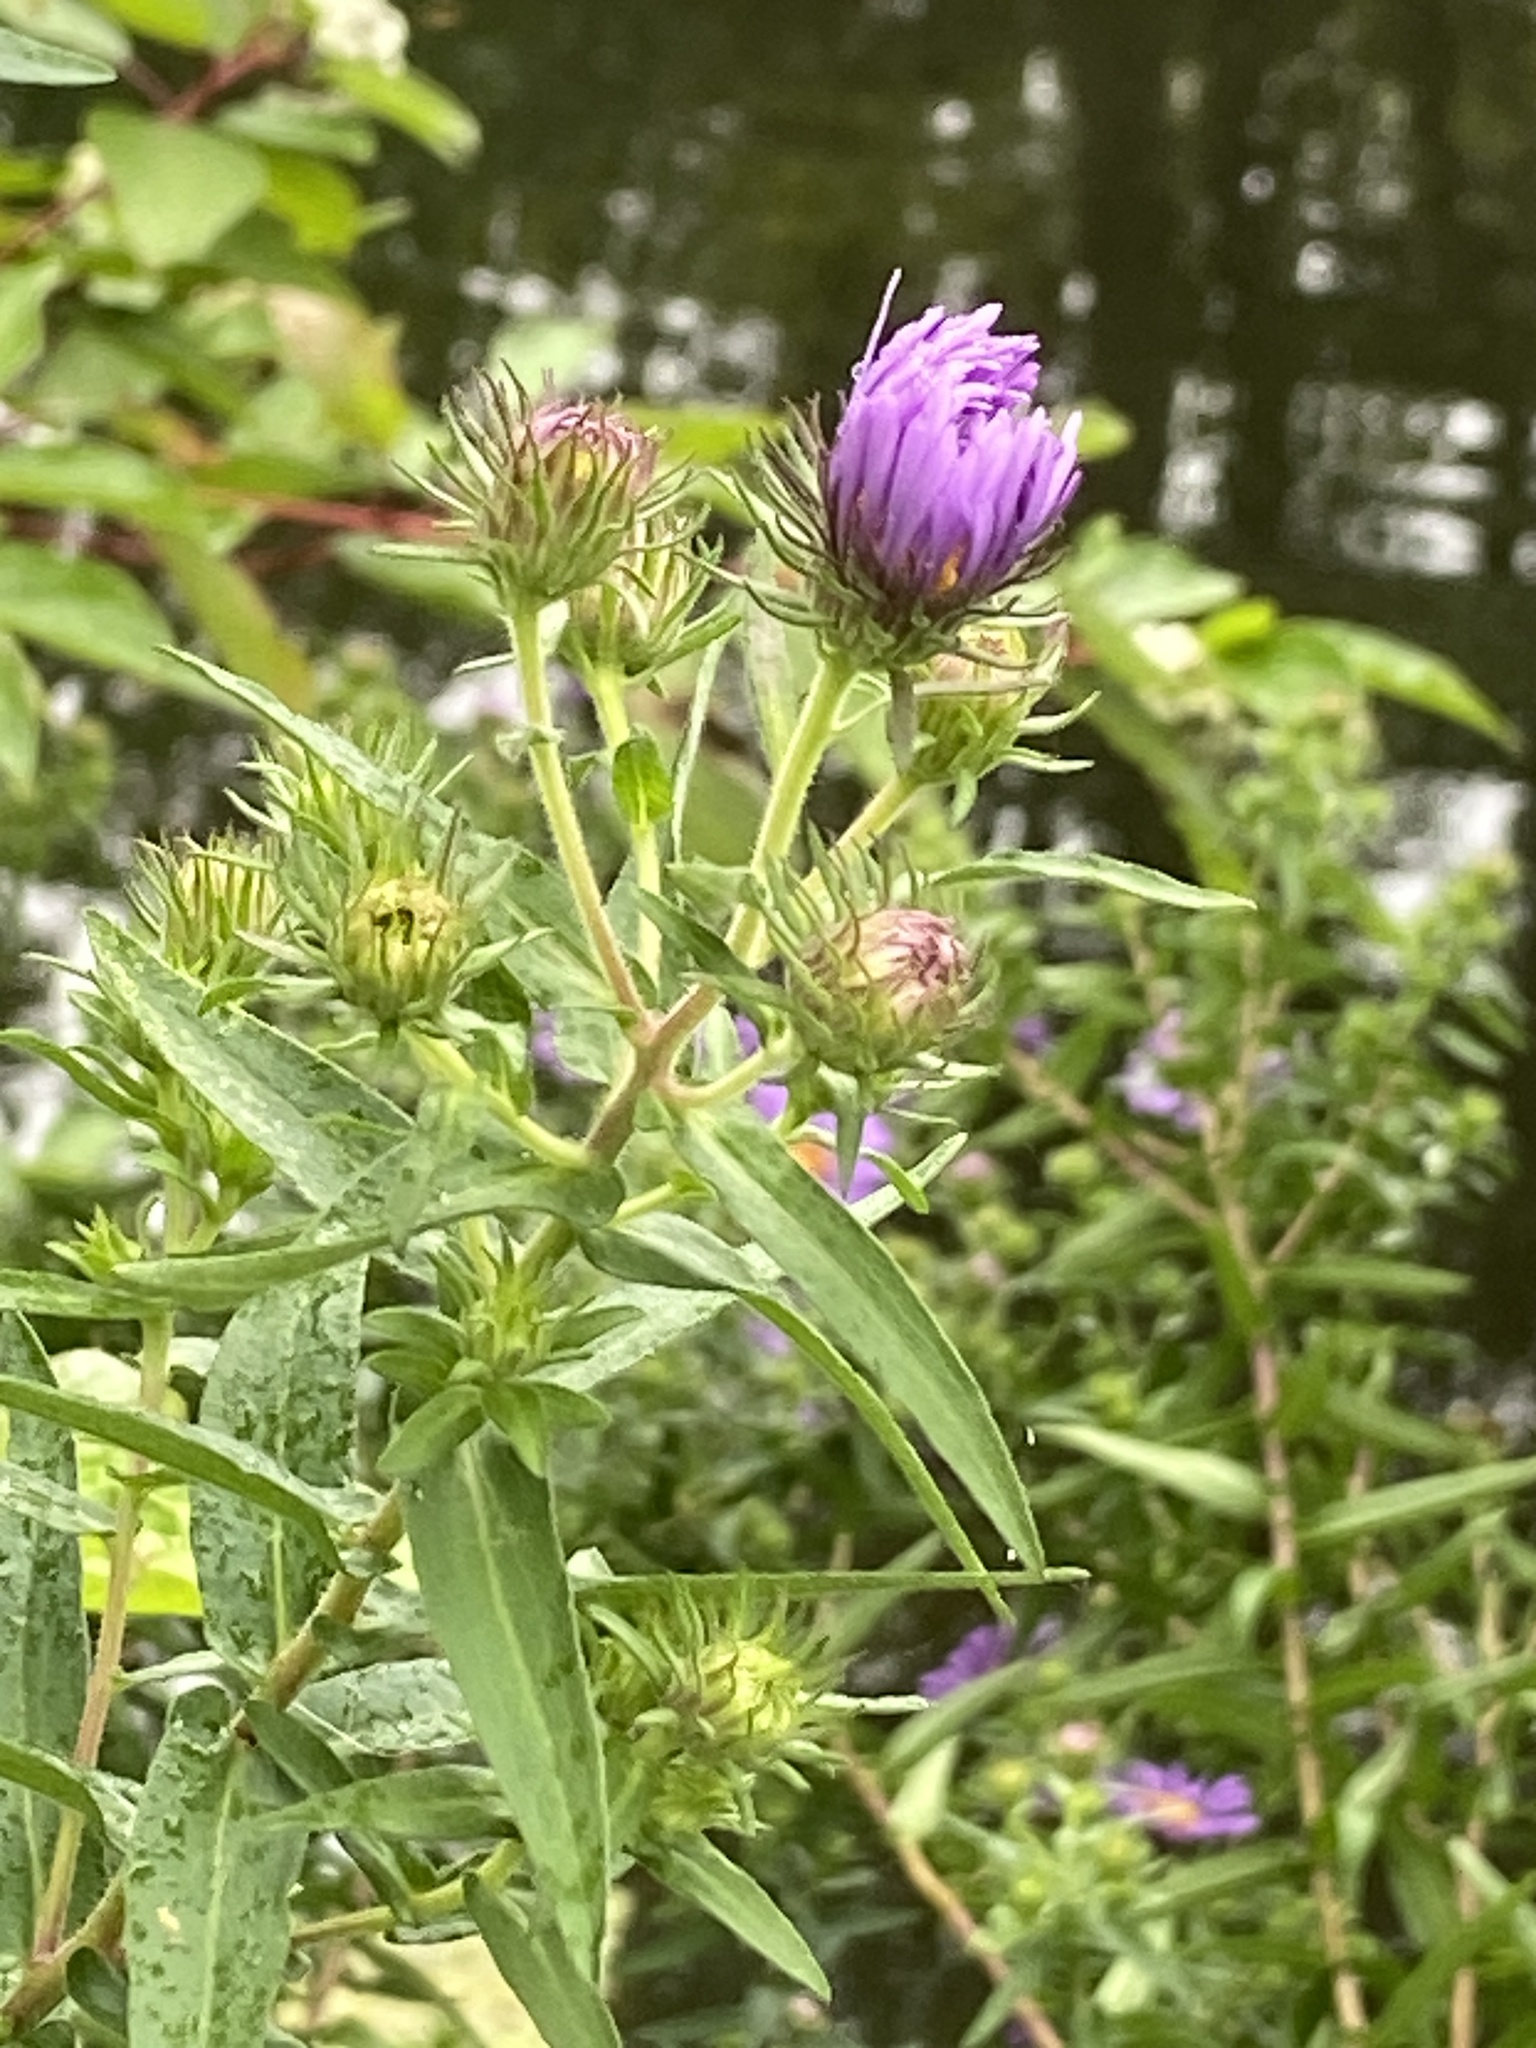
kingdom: Plantae
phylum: Tracheophyta
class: Magnoliopsida
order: Asterales
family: Asteraceae
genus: Symphyotrichum
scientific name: Symphyotrichum novae-angliae
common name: Michaelmas daisy
